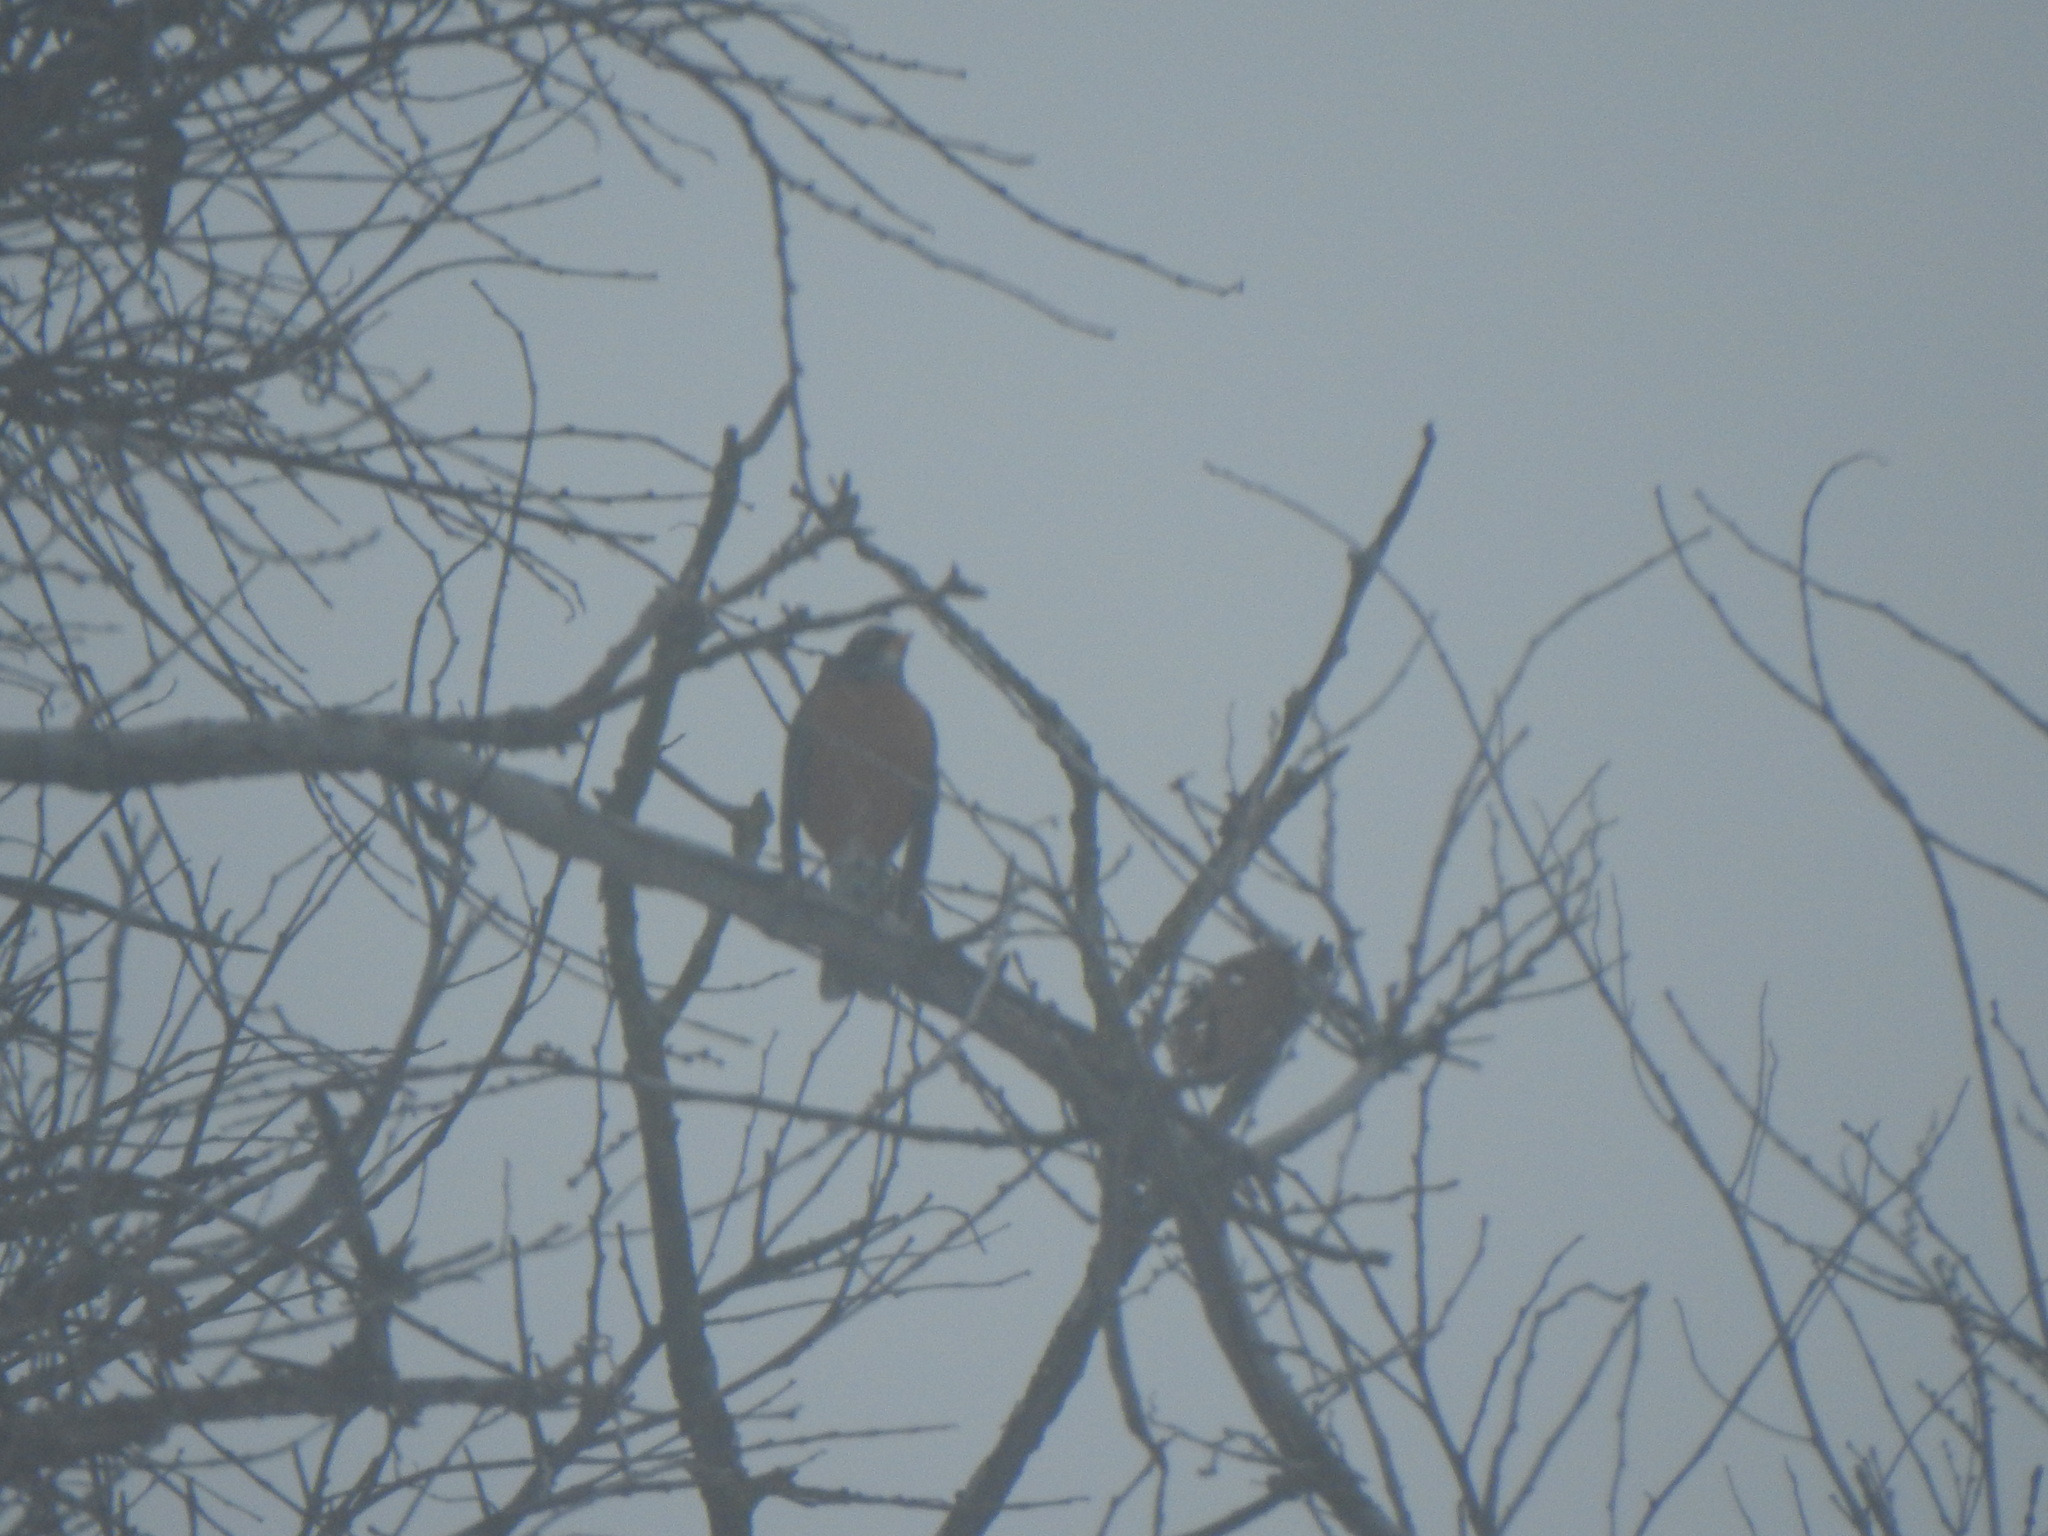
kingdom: Animalia
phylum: Chordata
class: Aves
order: Passeriformes
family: Turdidae
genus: Turdus
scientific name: Turdus migratorius
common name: American robin
